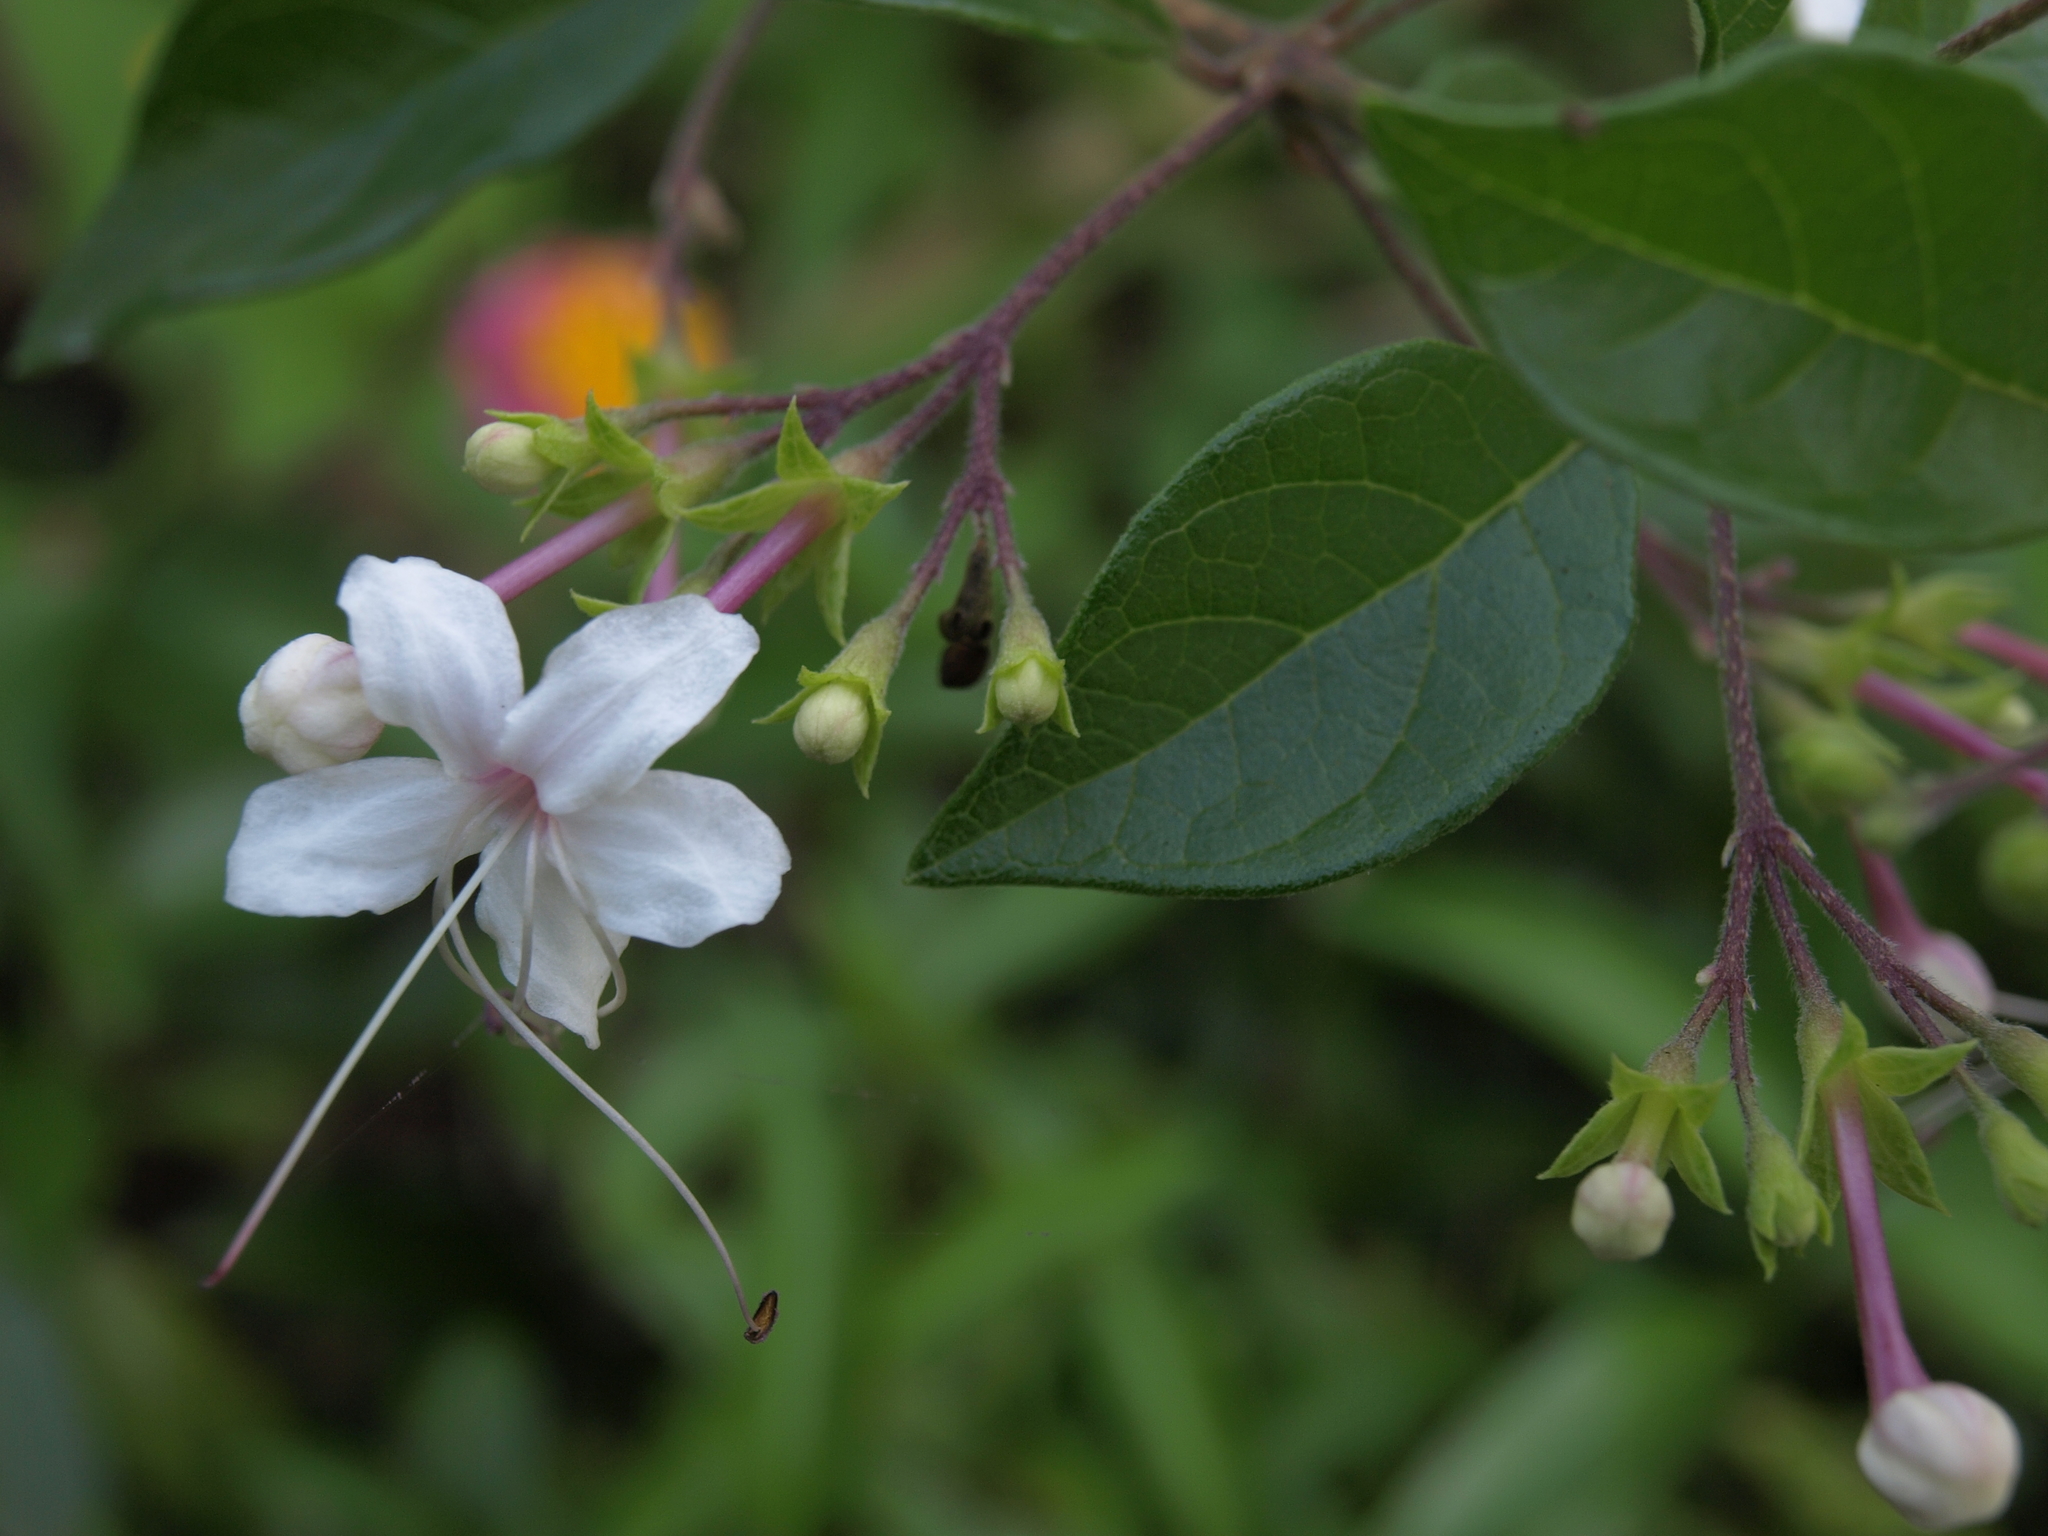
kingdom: Plantae
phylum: Tracheophyta
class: Magnoliopsida
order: Lamiales
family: Lamiaceae
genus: Volkameria
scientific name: Volkameria mollis
